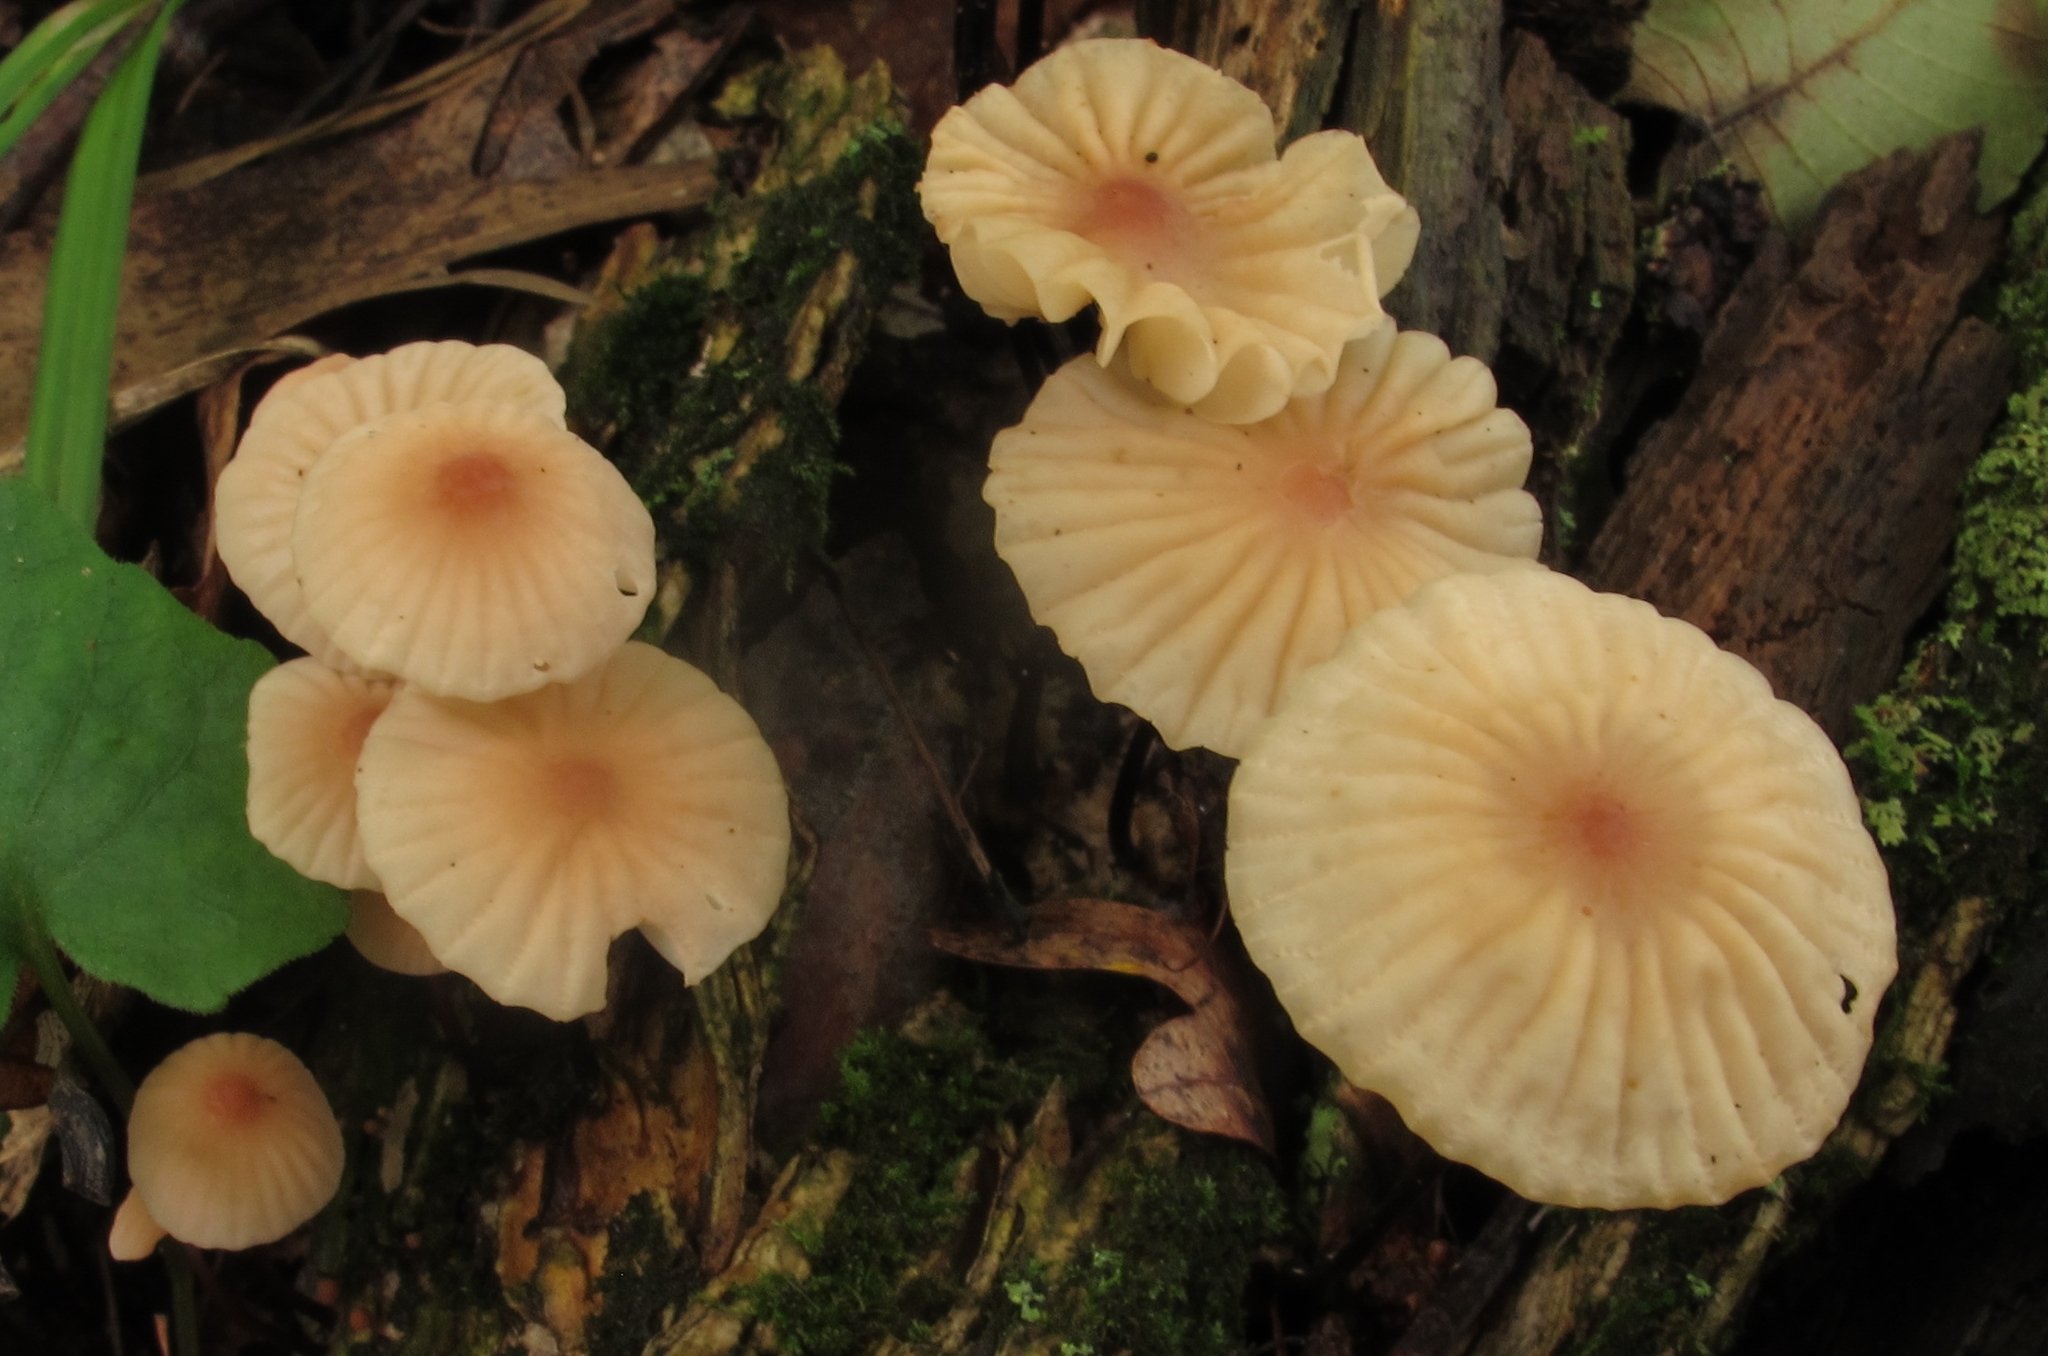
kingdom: Fungi
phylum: Basidiomycota
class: Agaricomycetes
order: Agaricales
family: Marasmiaceae
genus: Marasmius
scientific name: Marasmius siccus
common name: Orange pinwheel
